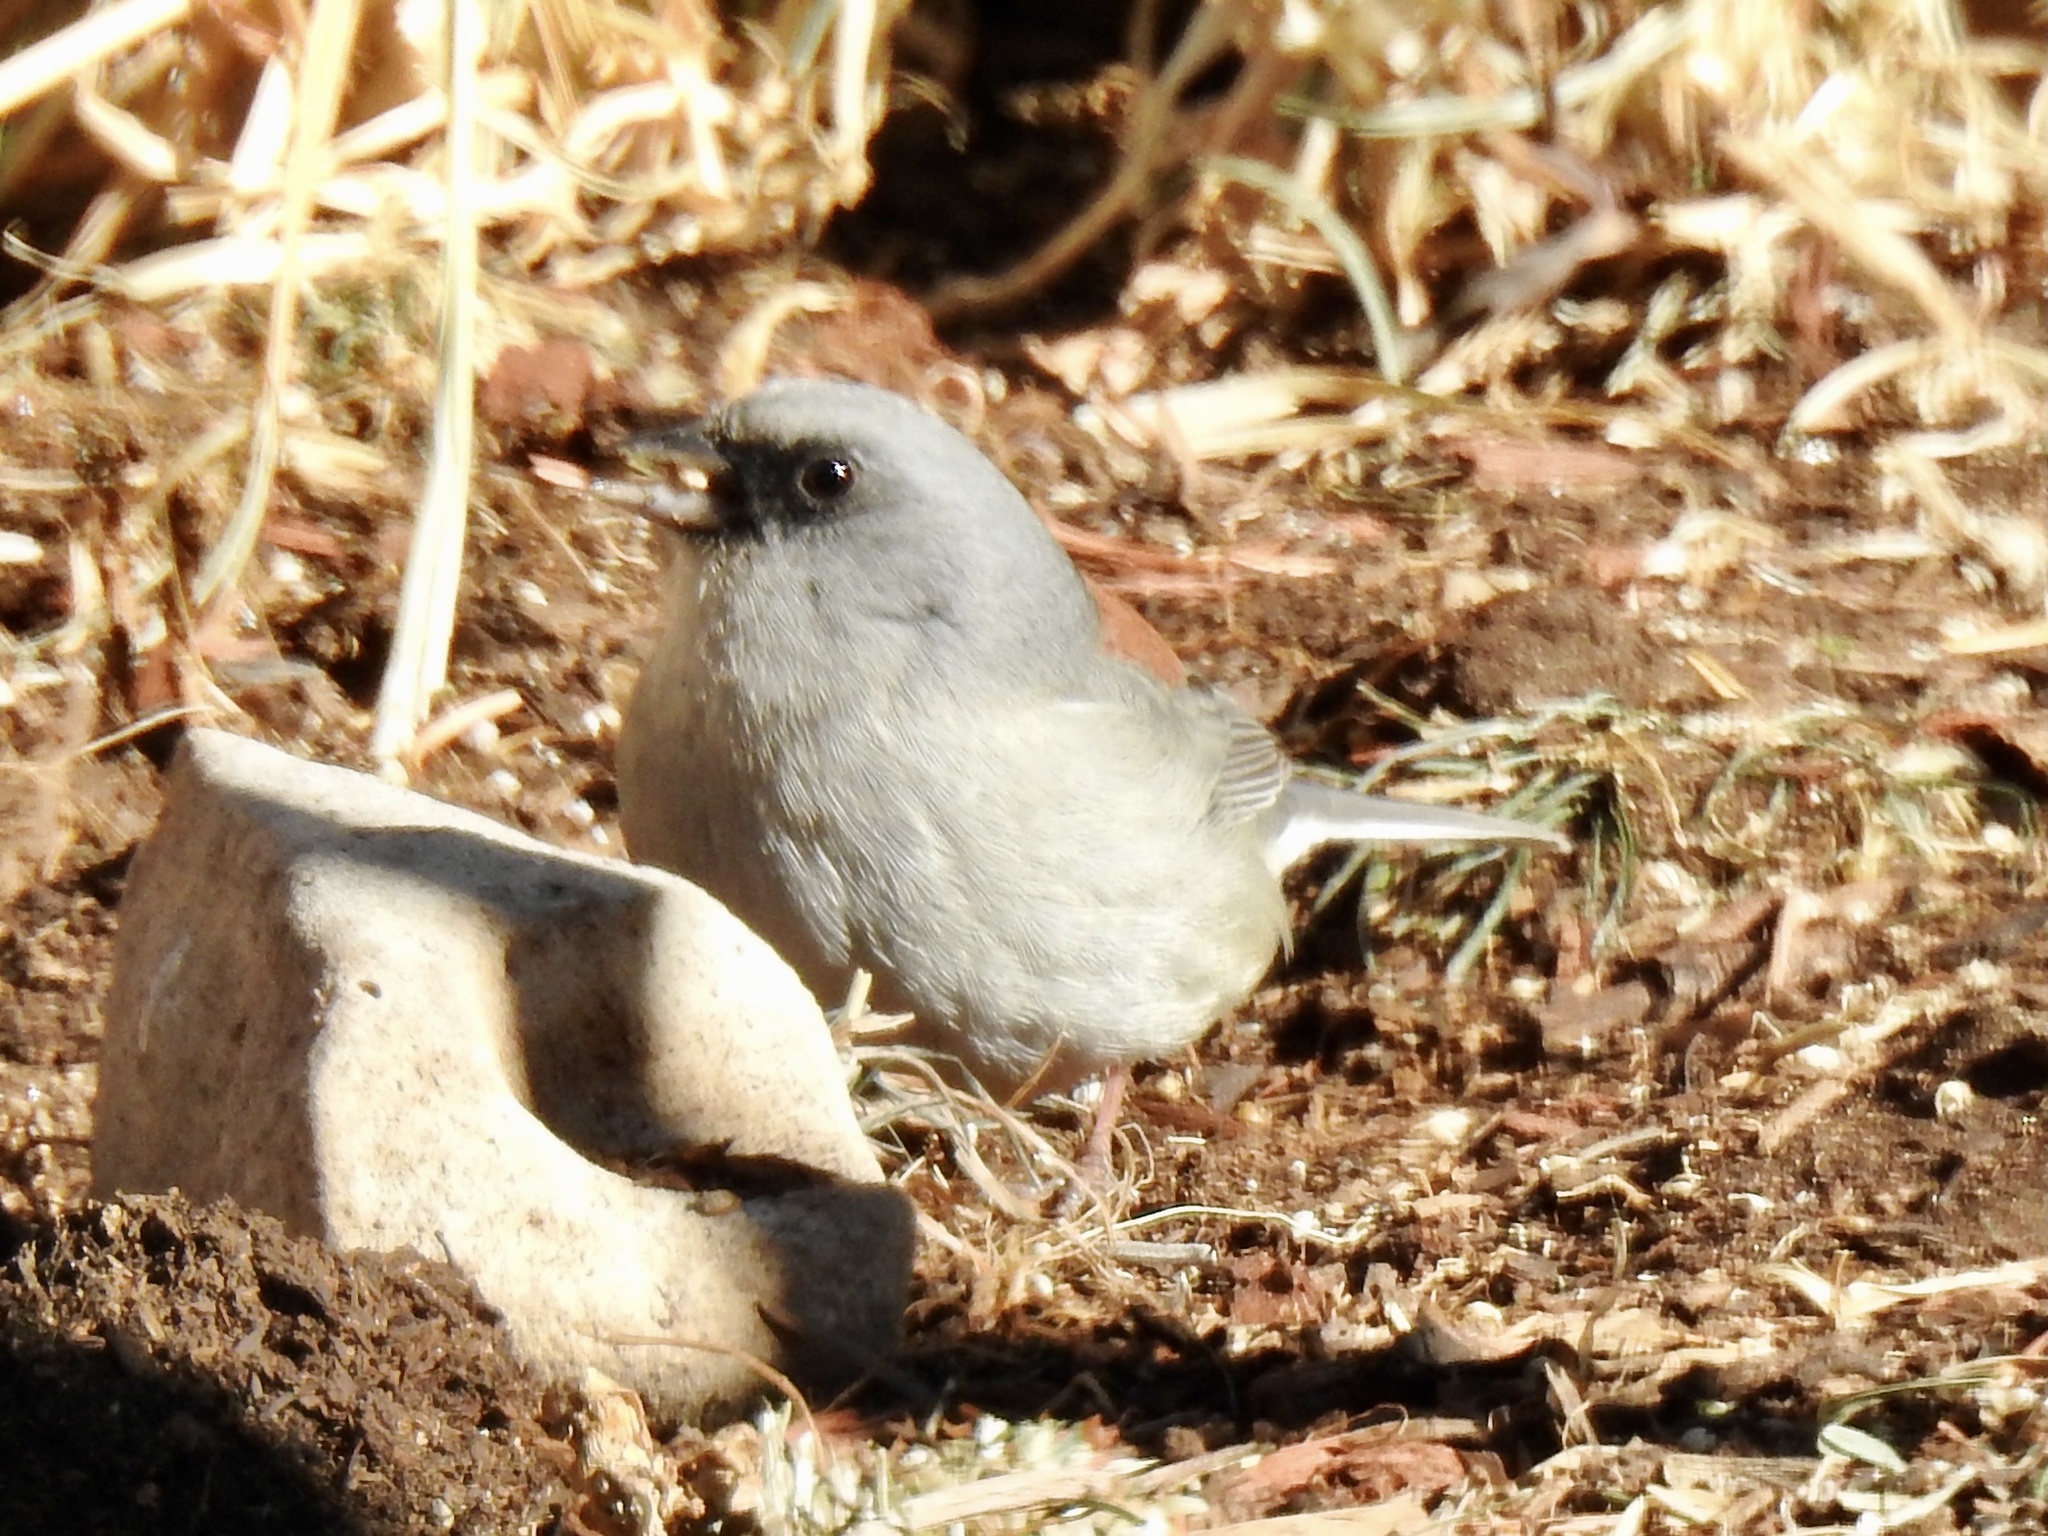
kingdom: Animalia
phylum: Chordata
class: Aves
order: Passeriformes
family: Passerellidae
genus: Junco
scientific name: Junco hyemalis
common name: Dark-eyed junco
